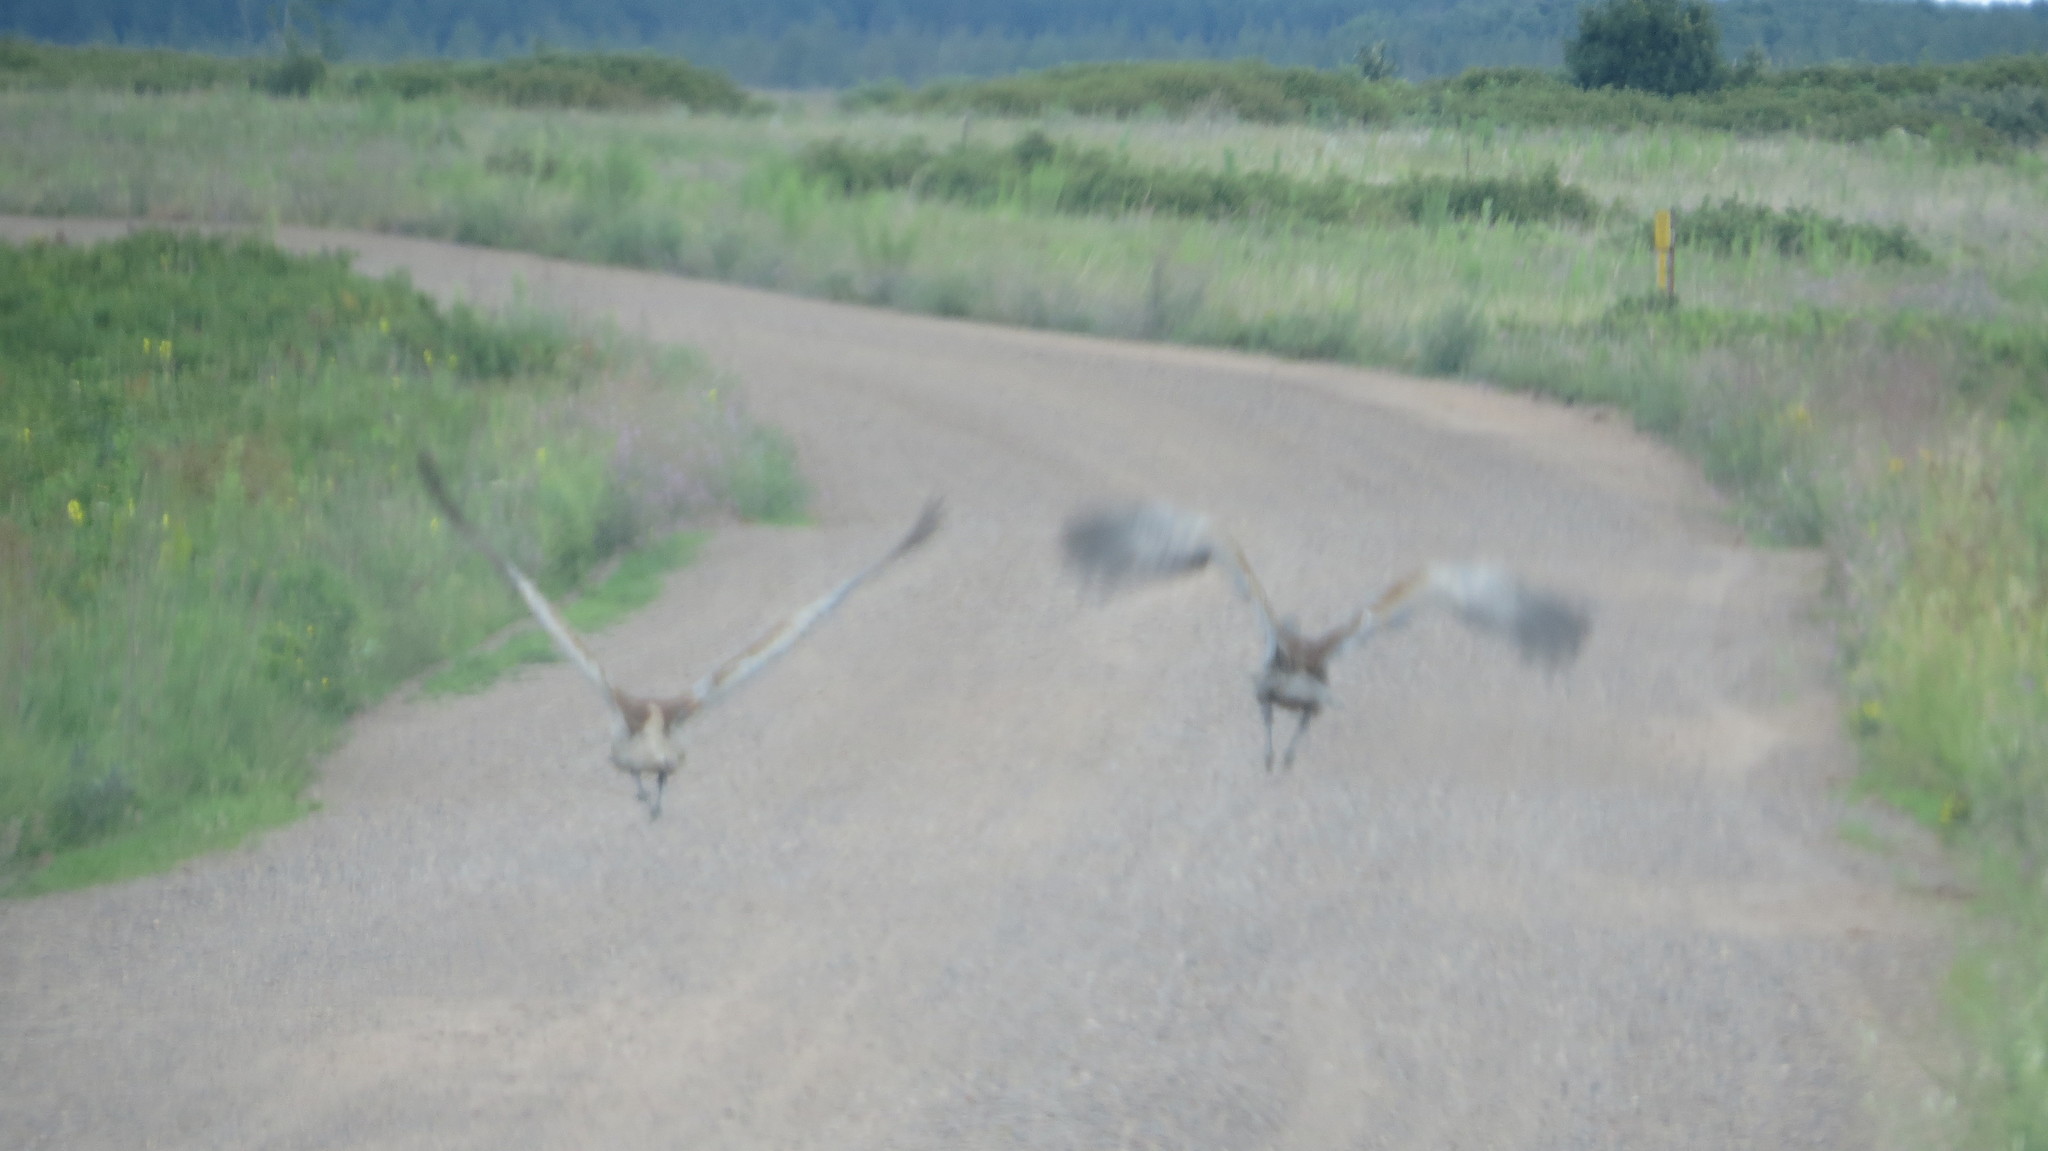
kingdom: Animalia
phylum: Chordata
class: Aves
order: Gruiformes
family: Gruidae
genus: Grus
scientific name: Grus canadensis
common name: Sandhill crane
